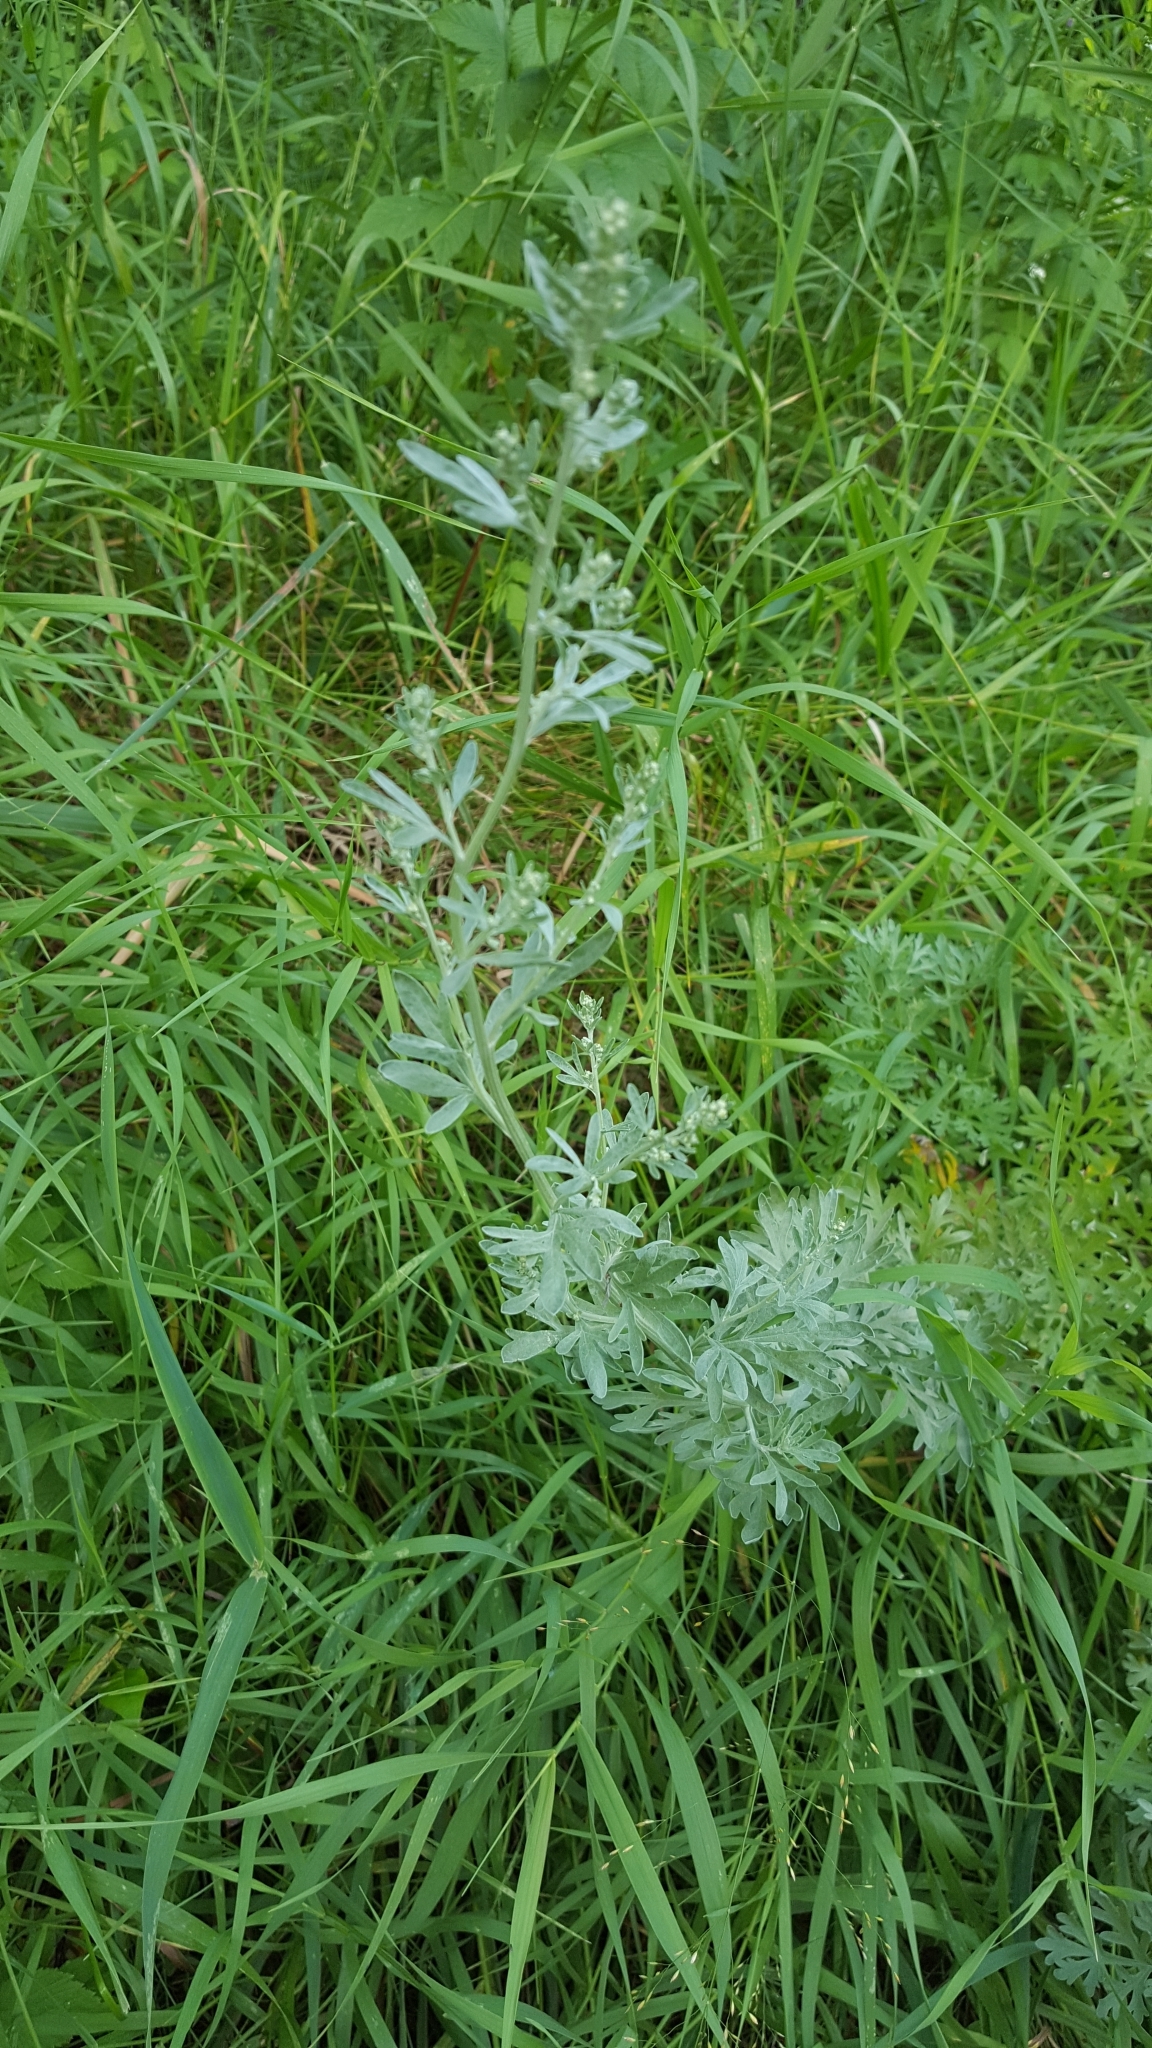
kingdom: Plantae
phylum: Tracheophyta
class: Magnoliopsida
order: Asterales
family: Asteraceae
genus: Artemisia
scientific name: Artemisia absinthium
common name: Wormwood
